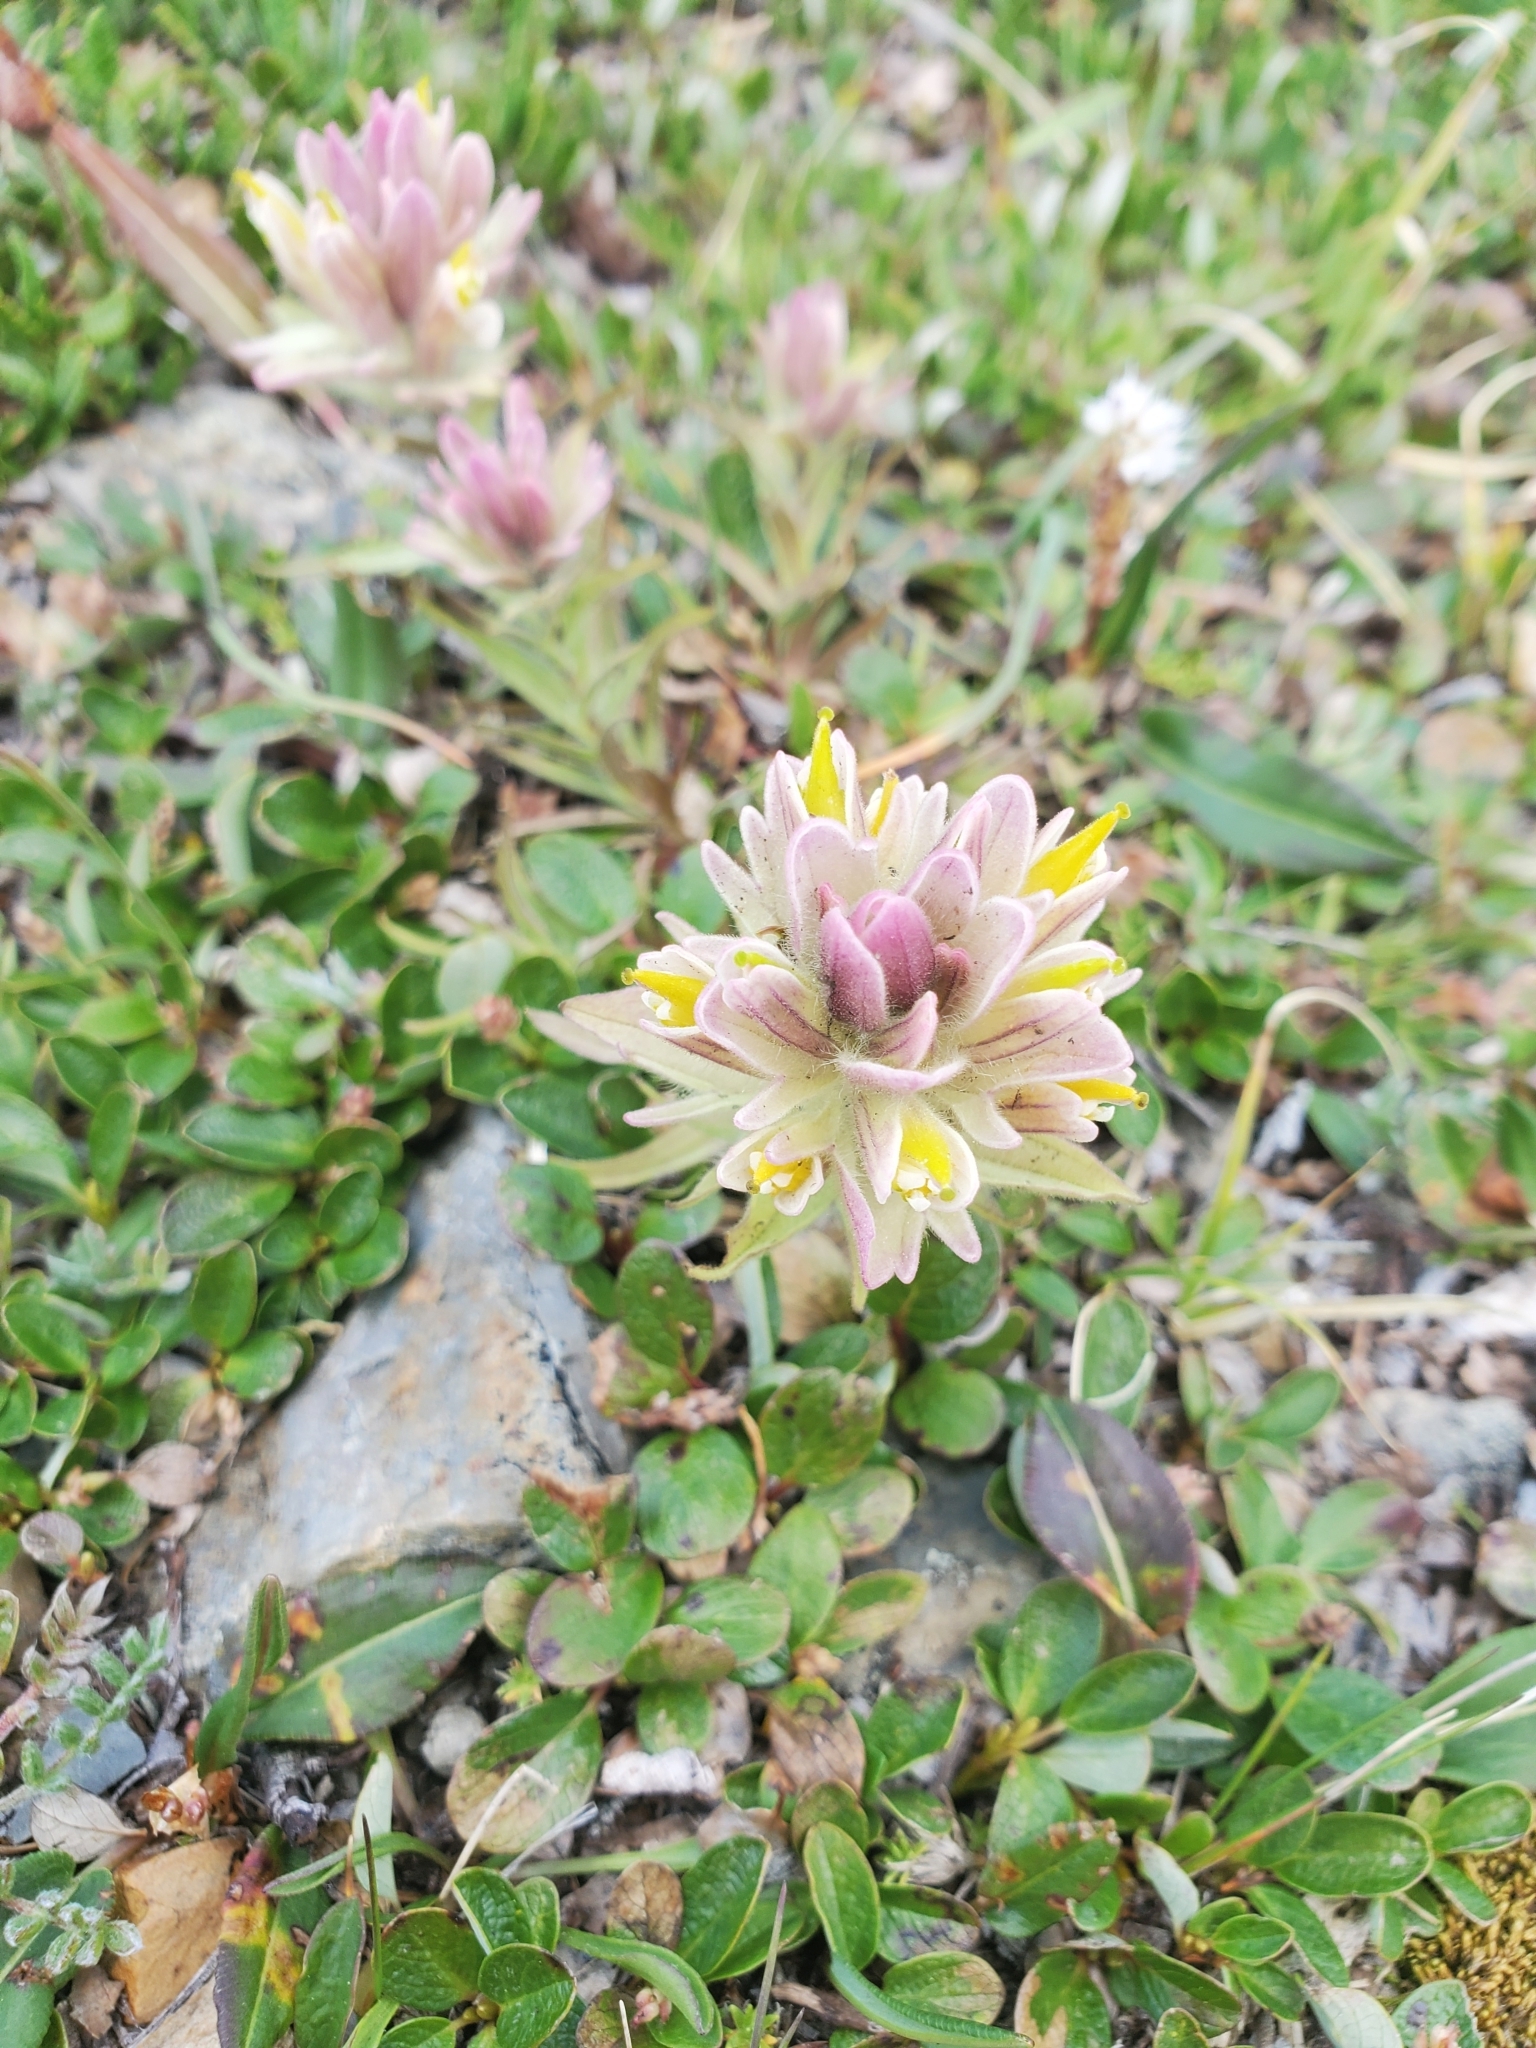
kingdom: Plantae
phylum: Tracheophyta
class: Magnoliopsida
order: Lamiales
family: Orobanchaceae
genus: Castilleja
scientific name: Castilleja pulchella
